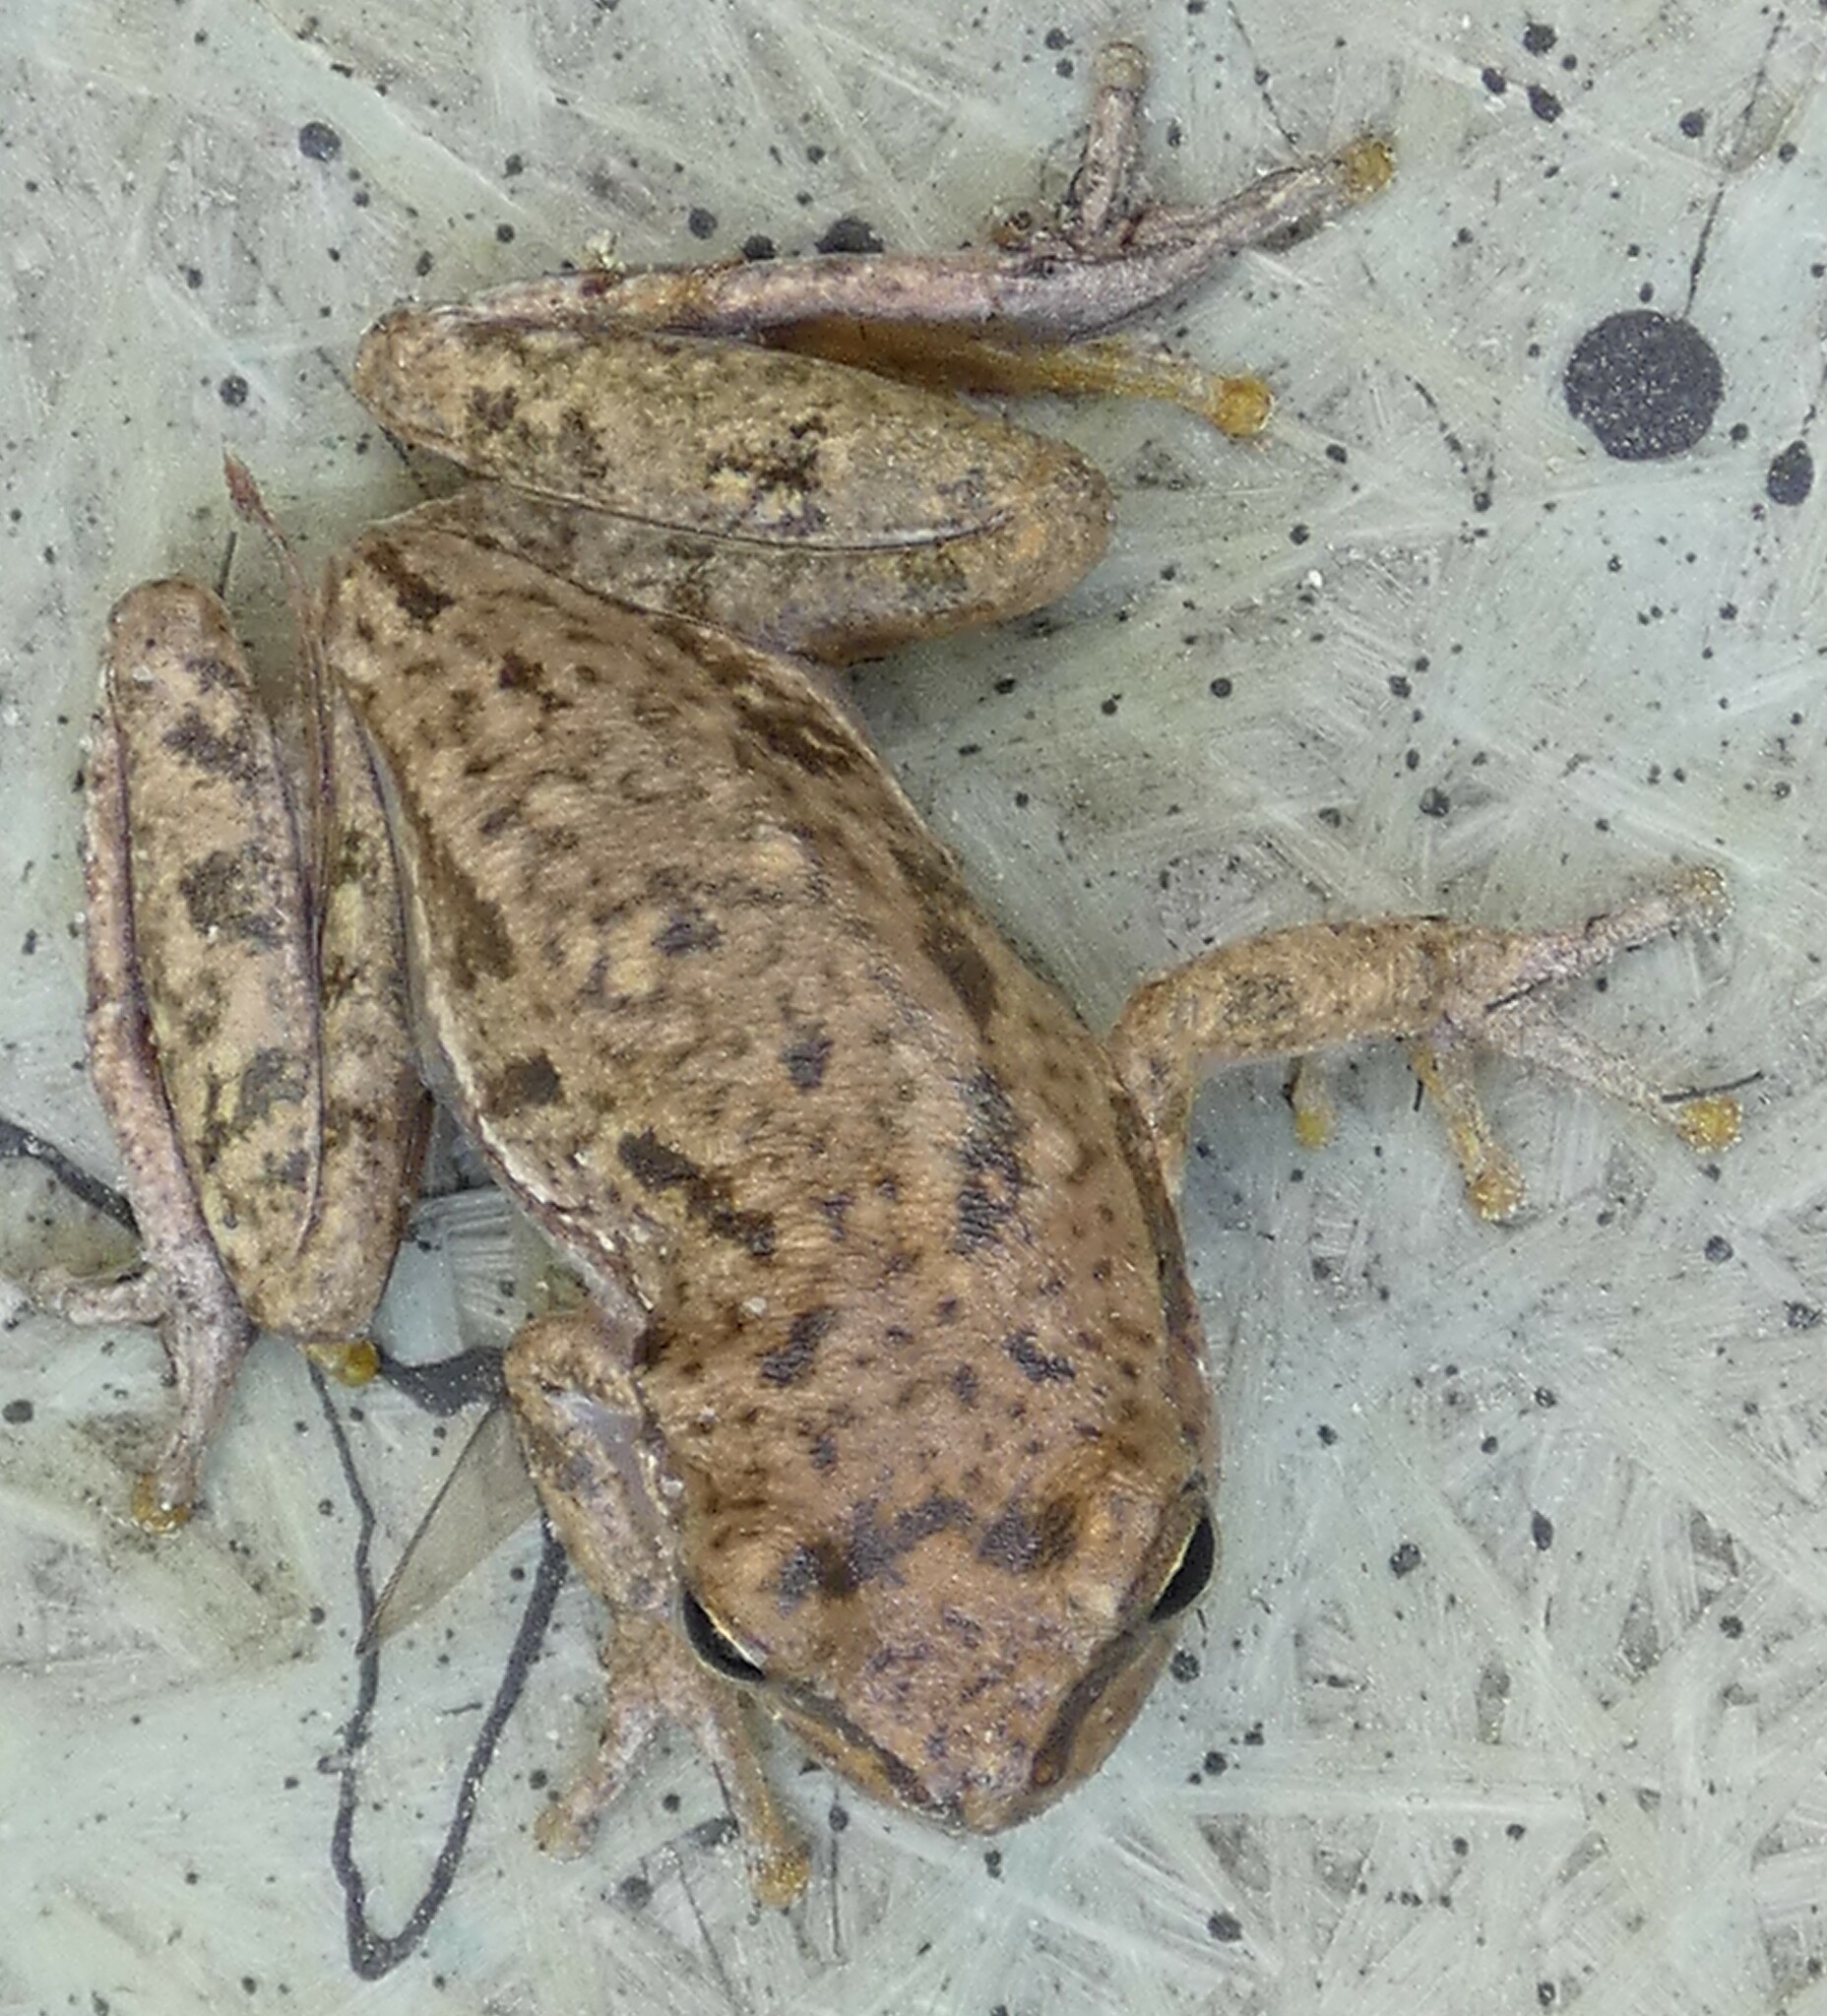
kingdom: Animalia
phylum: Chordata
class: Amphibia
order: Anura
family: Hylidae
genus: Dryophytes
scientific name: Dryophytes squirellus
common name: Squirrel treefrog
